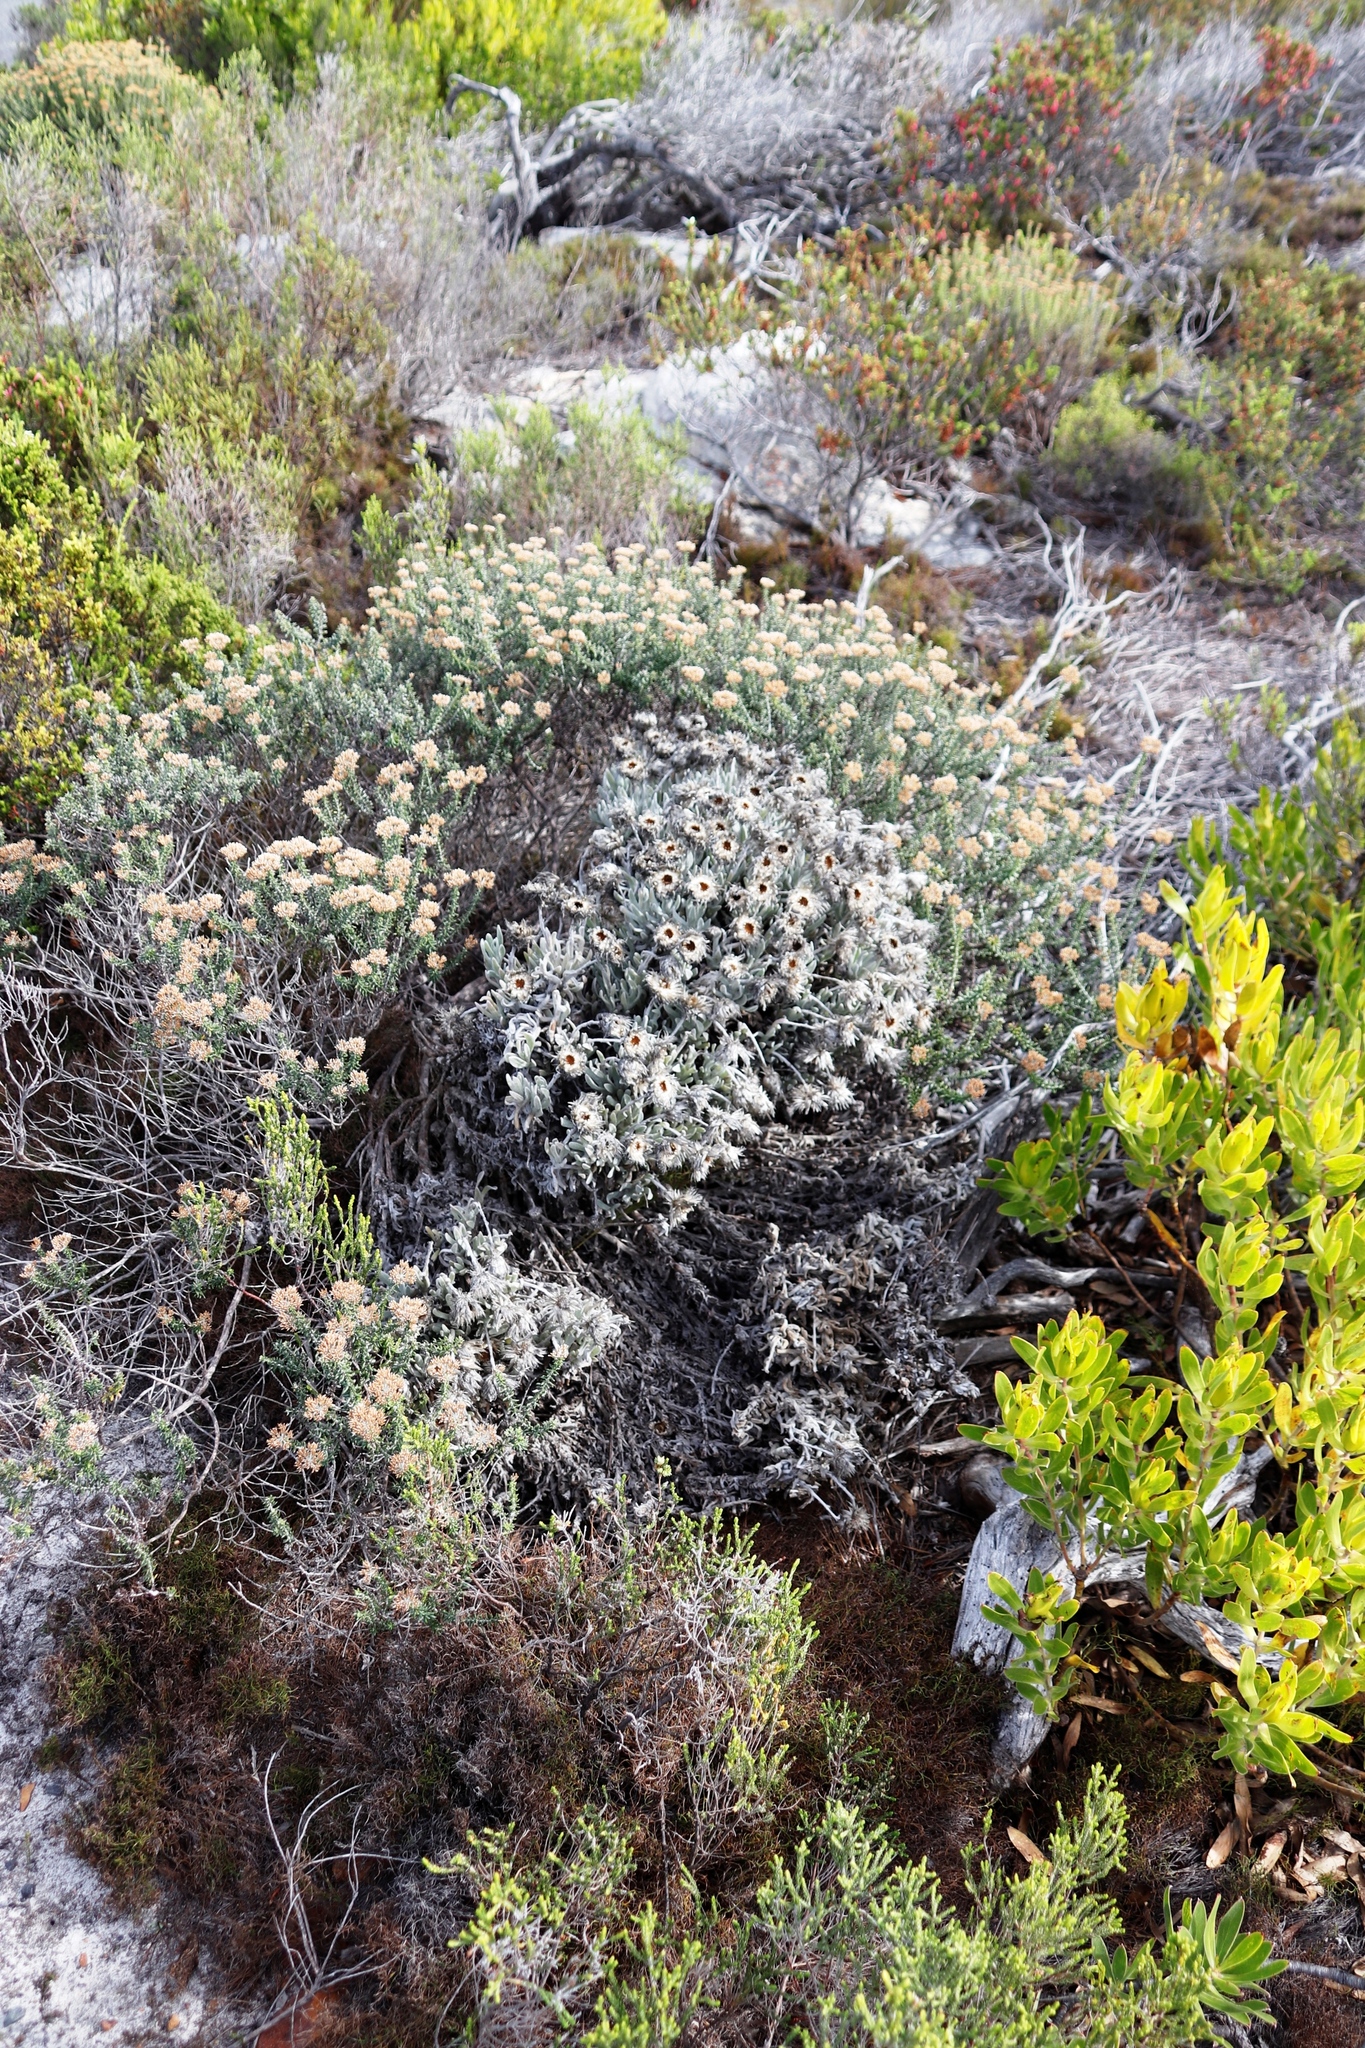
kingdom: Plantae
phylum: Tracheophyta
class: Magnoliopsida
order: Proteales
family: Proteaceae
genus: Leucadendron
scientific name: Leucadendron laureolum
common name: Golden sunshinebush
